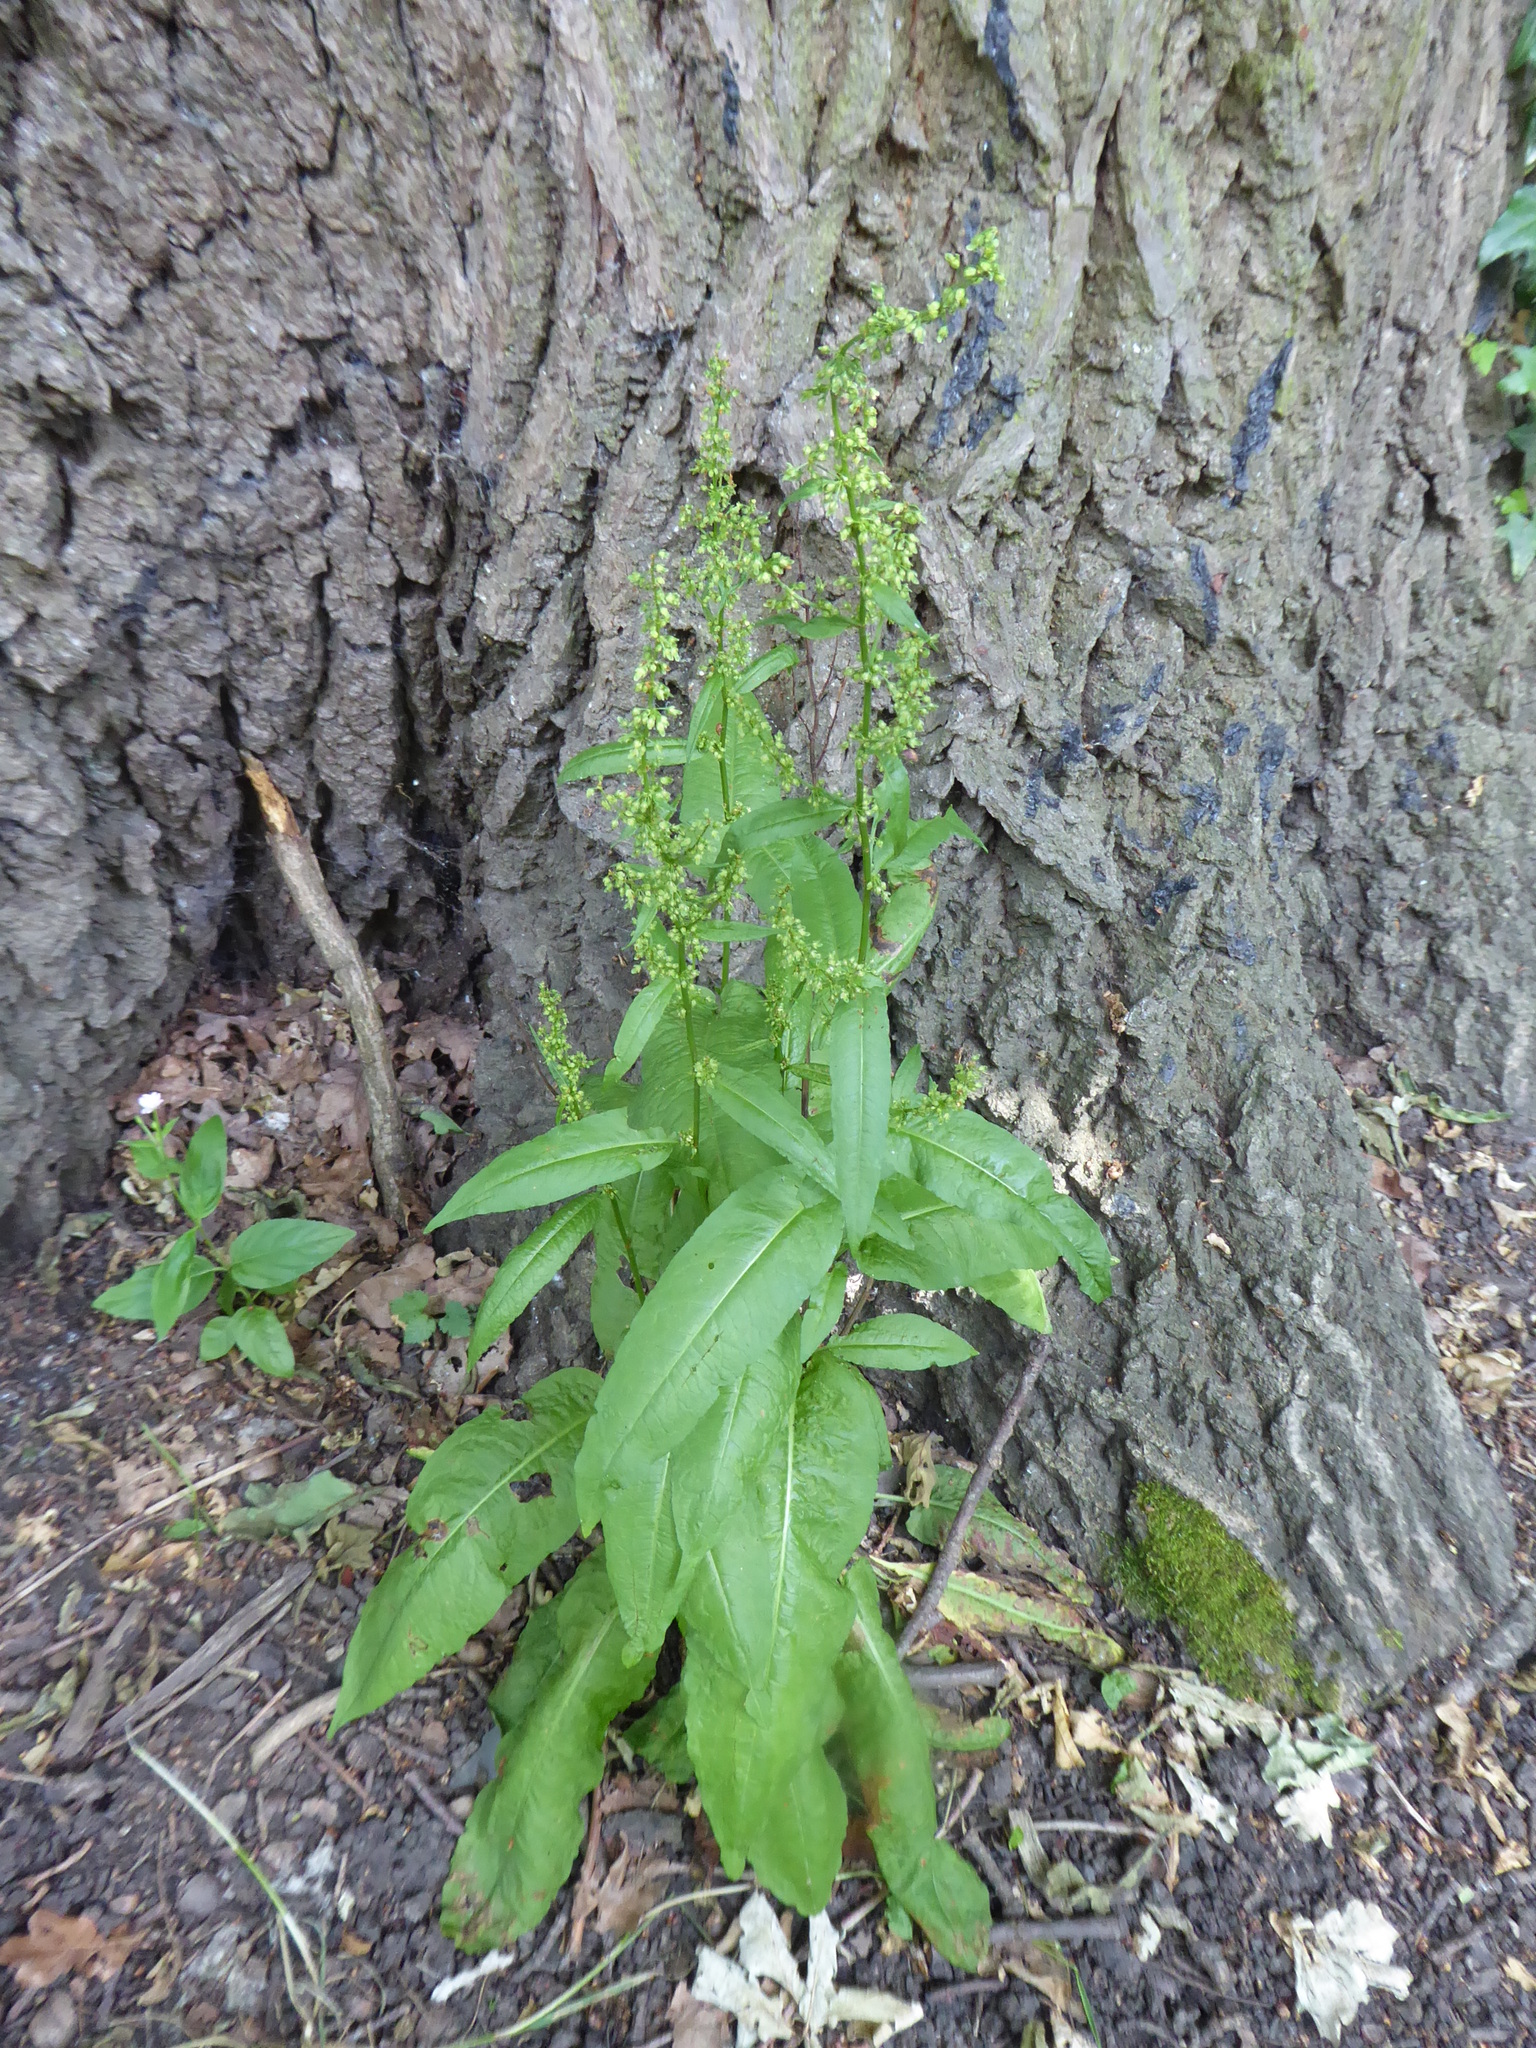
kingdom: Plantae
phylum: Tracheophyta
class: Magnoliopsida
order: Caryophyllales
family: Polygonaceae
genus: Rumex
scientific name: Rumex sanguineus
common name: Wood dock
